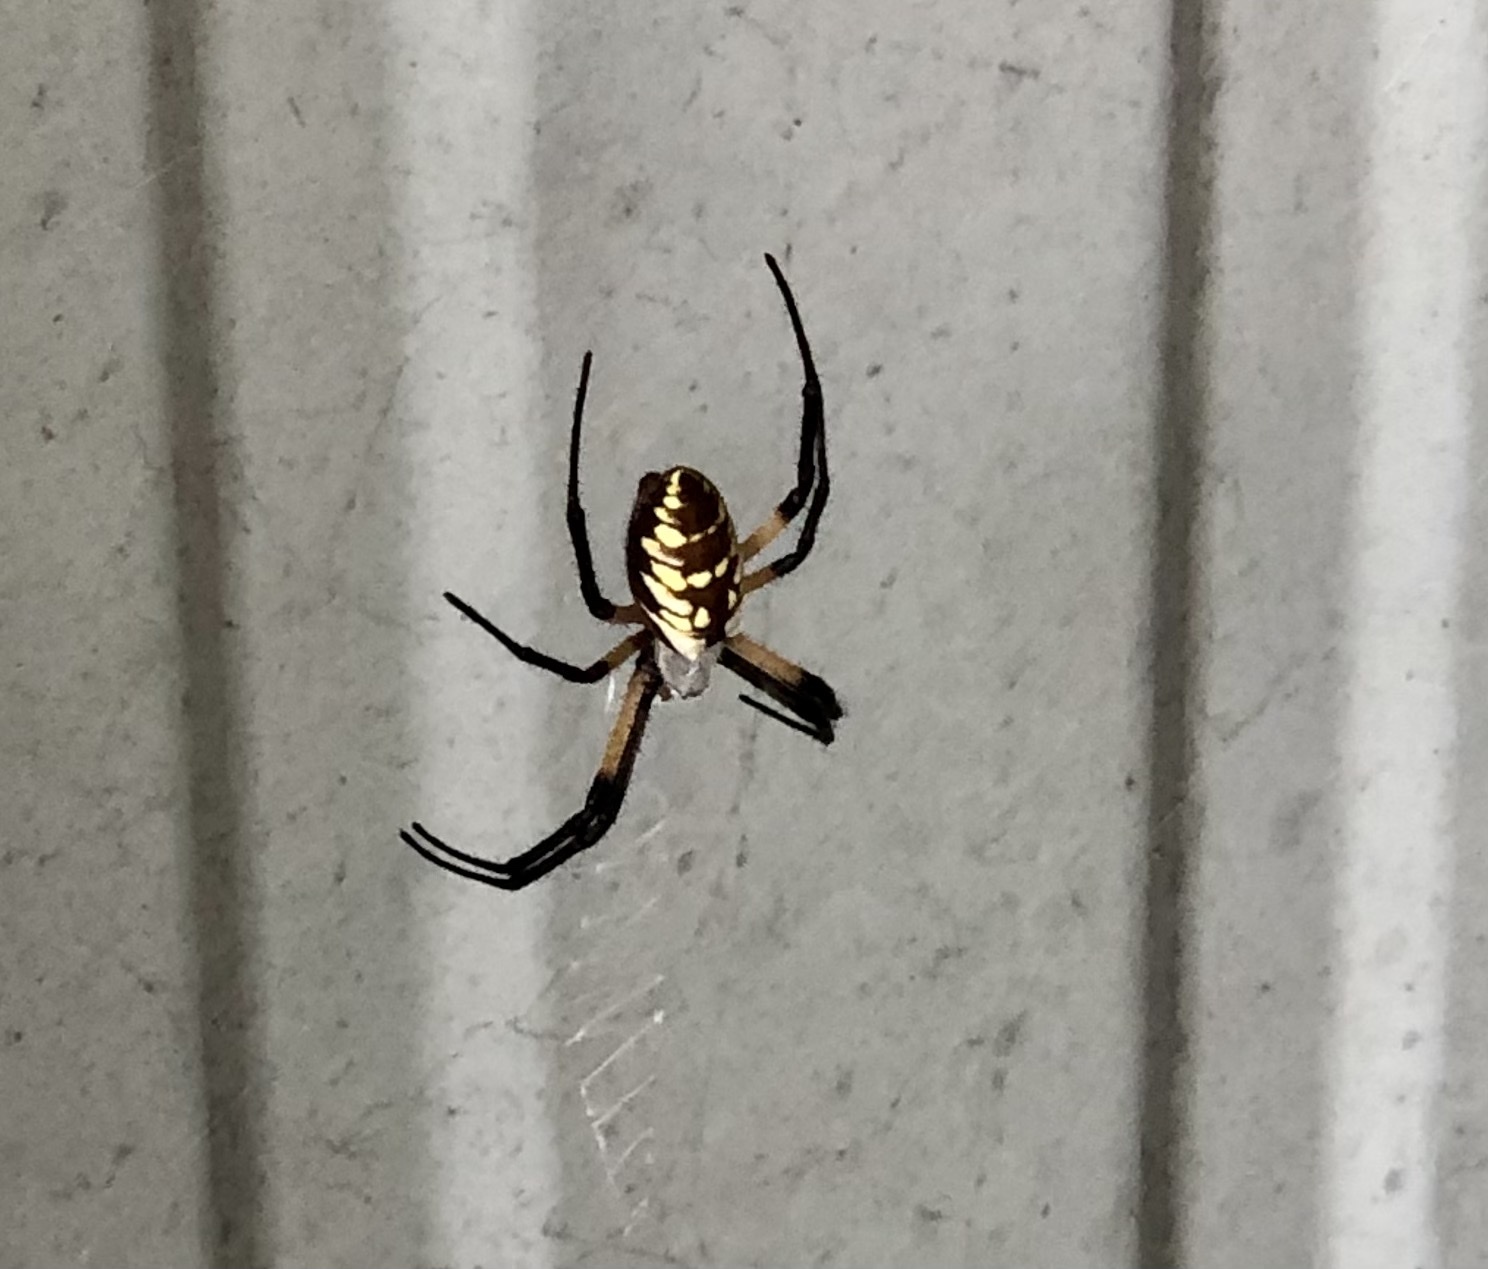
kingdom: Animalia
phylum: Arthropoda
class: Arachnida
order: Araneae
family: Araneidae
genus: Argiope
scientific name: Argiope aurantia
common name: Orb weavers
